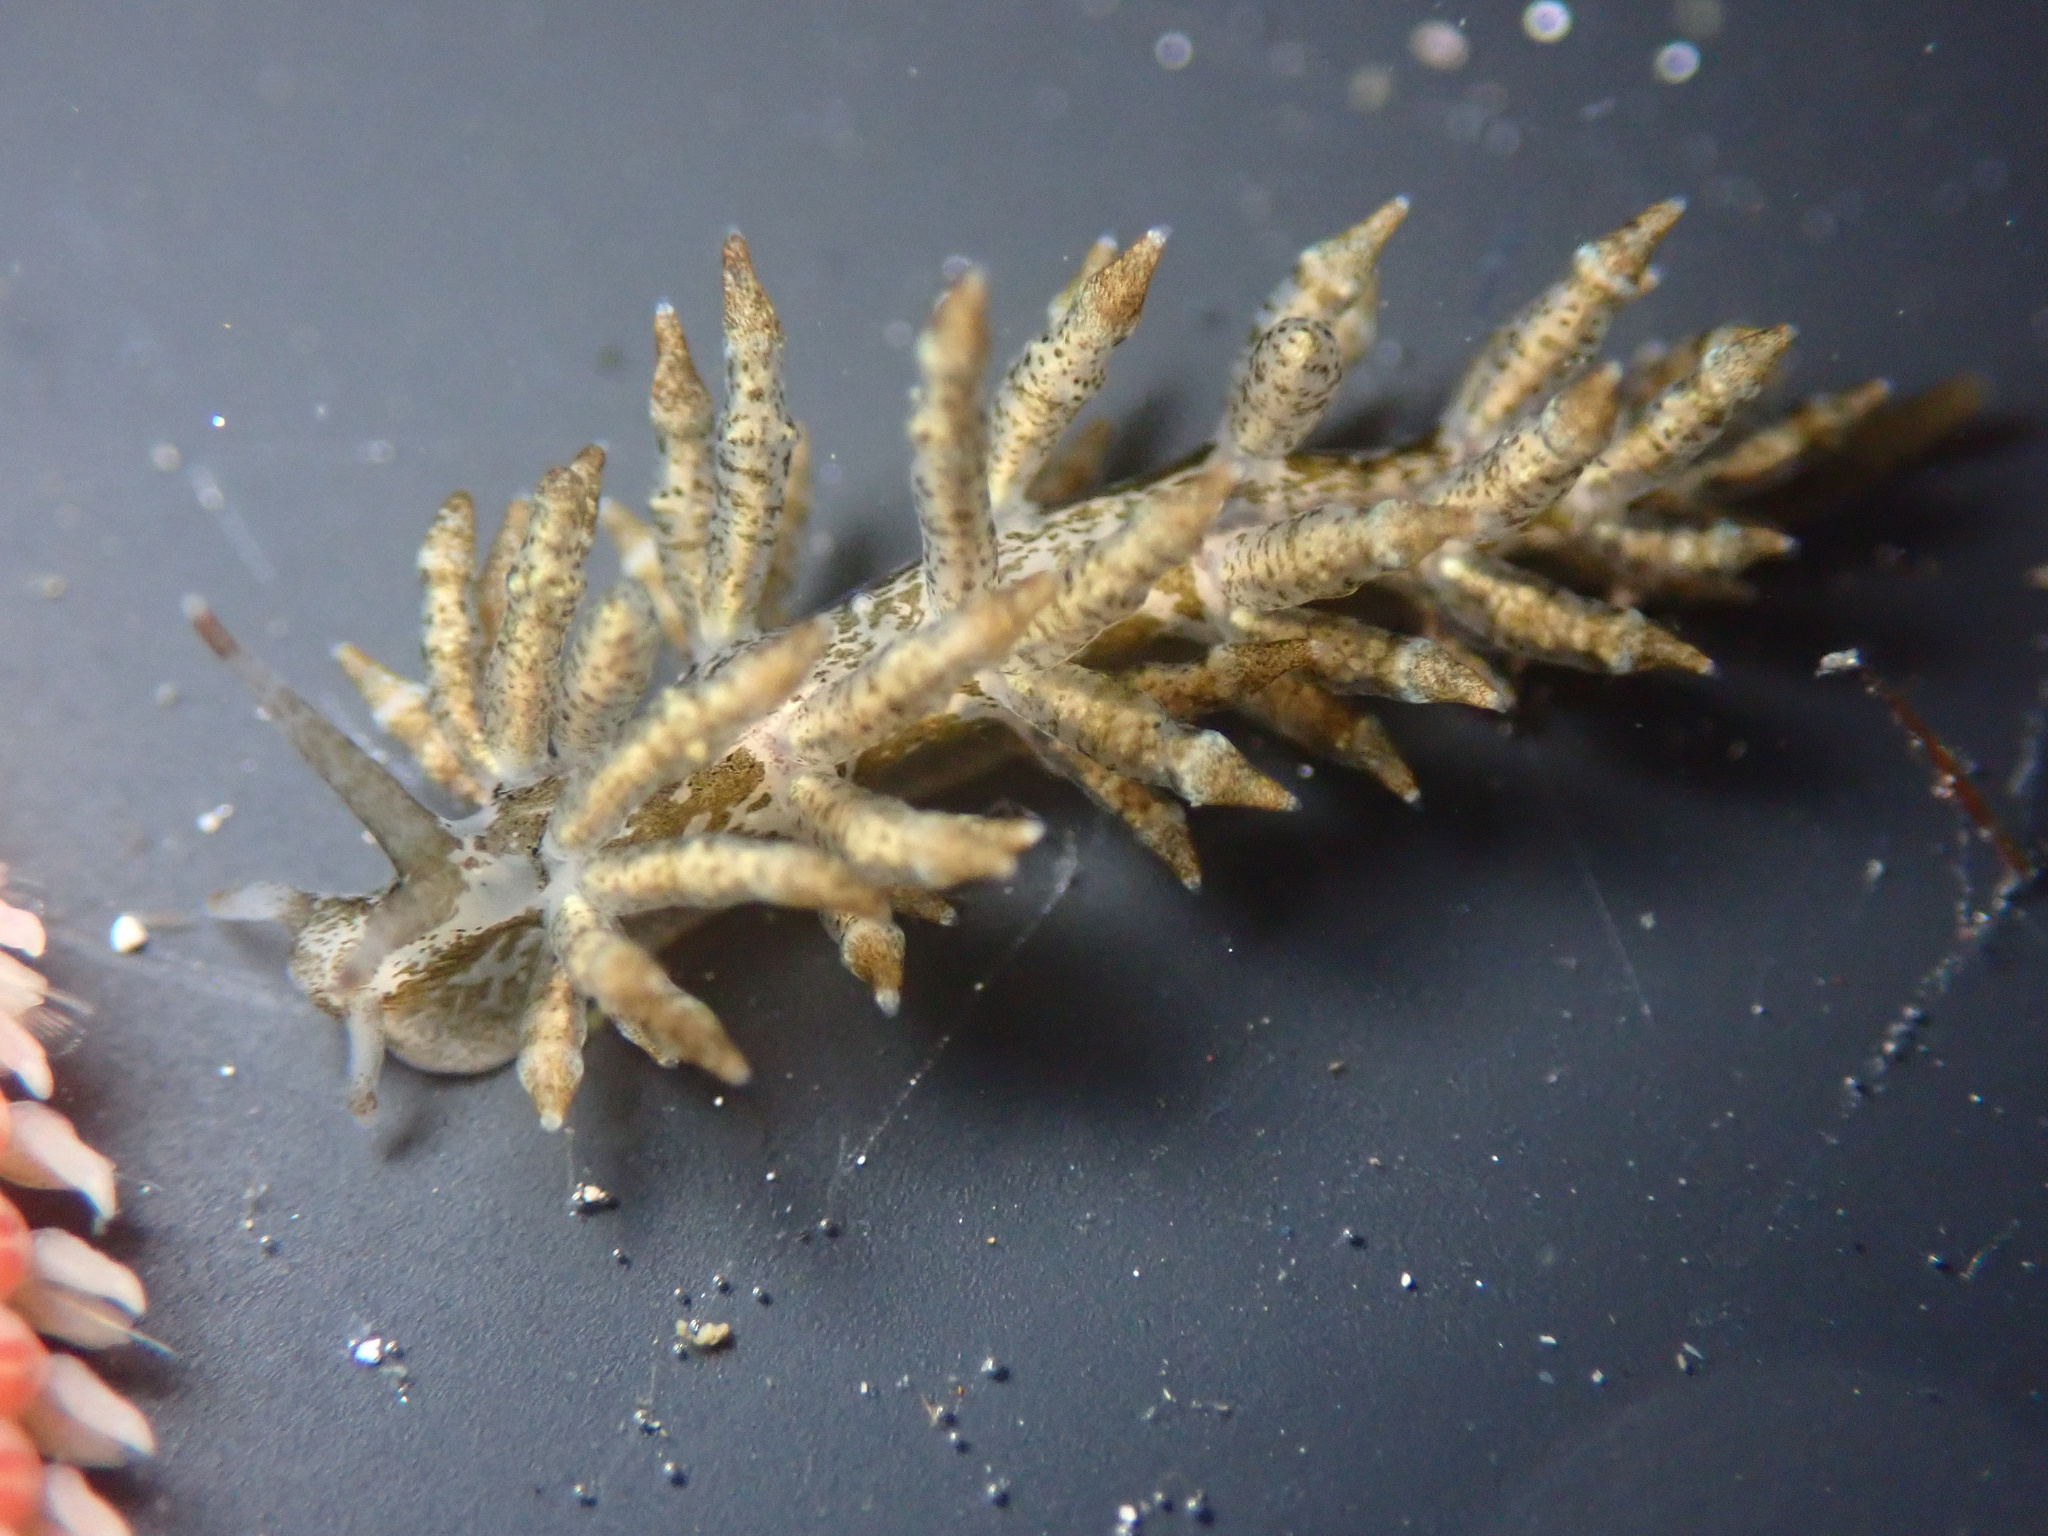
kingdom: Animalia
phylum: Mollusca
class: Gastropoda
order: Nudibranchia
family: Eubranchidae
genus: Eubranchus
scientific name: Eubranchus rustyus
